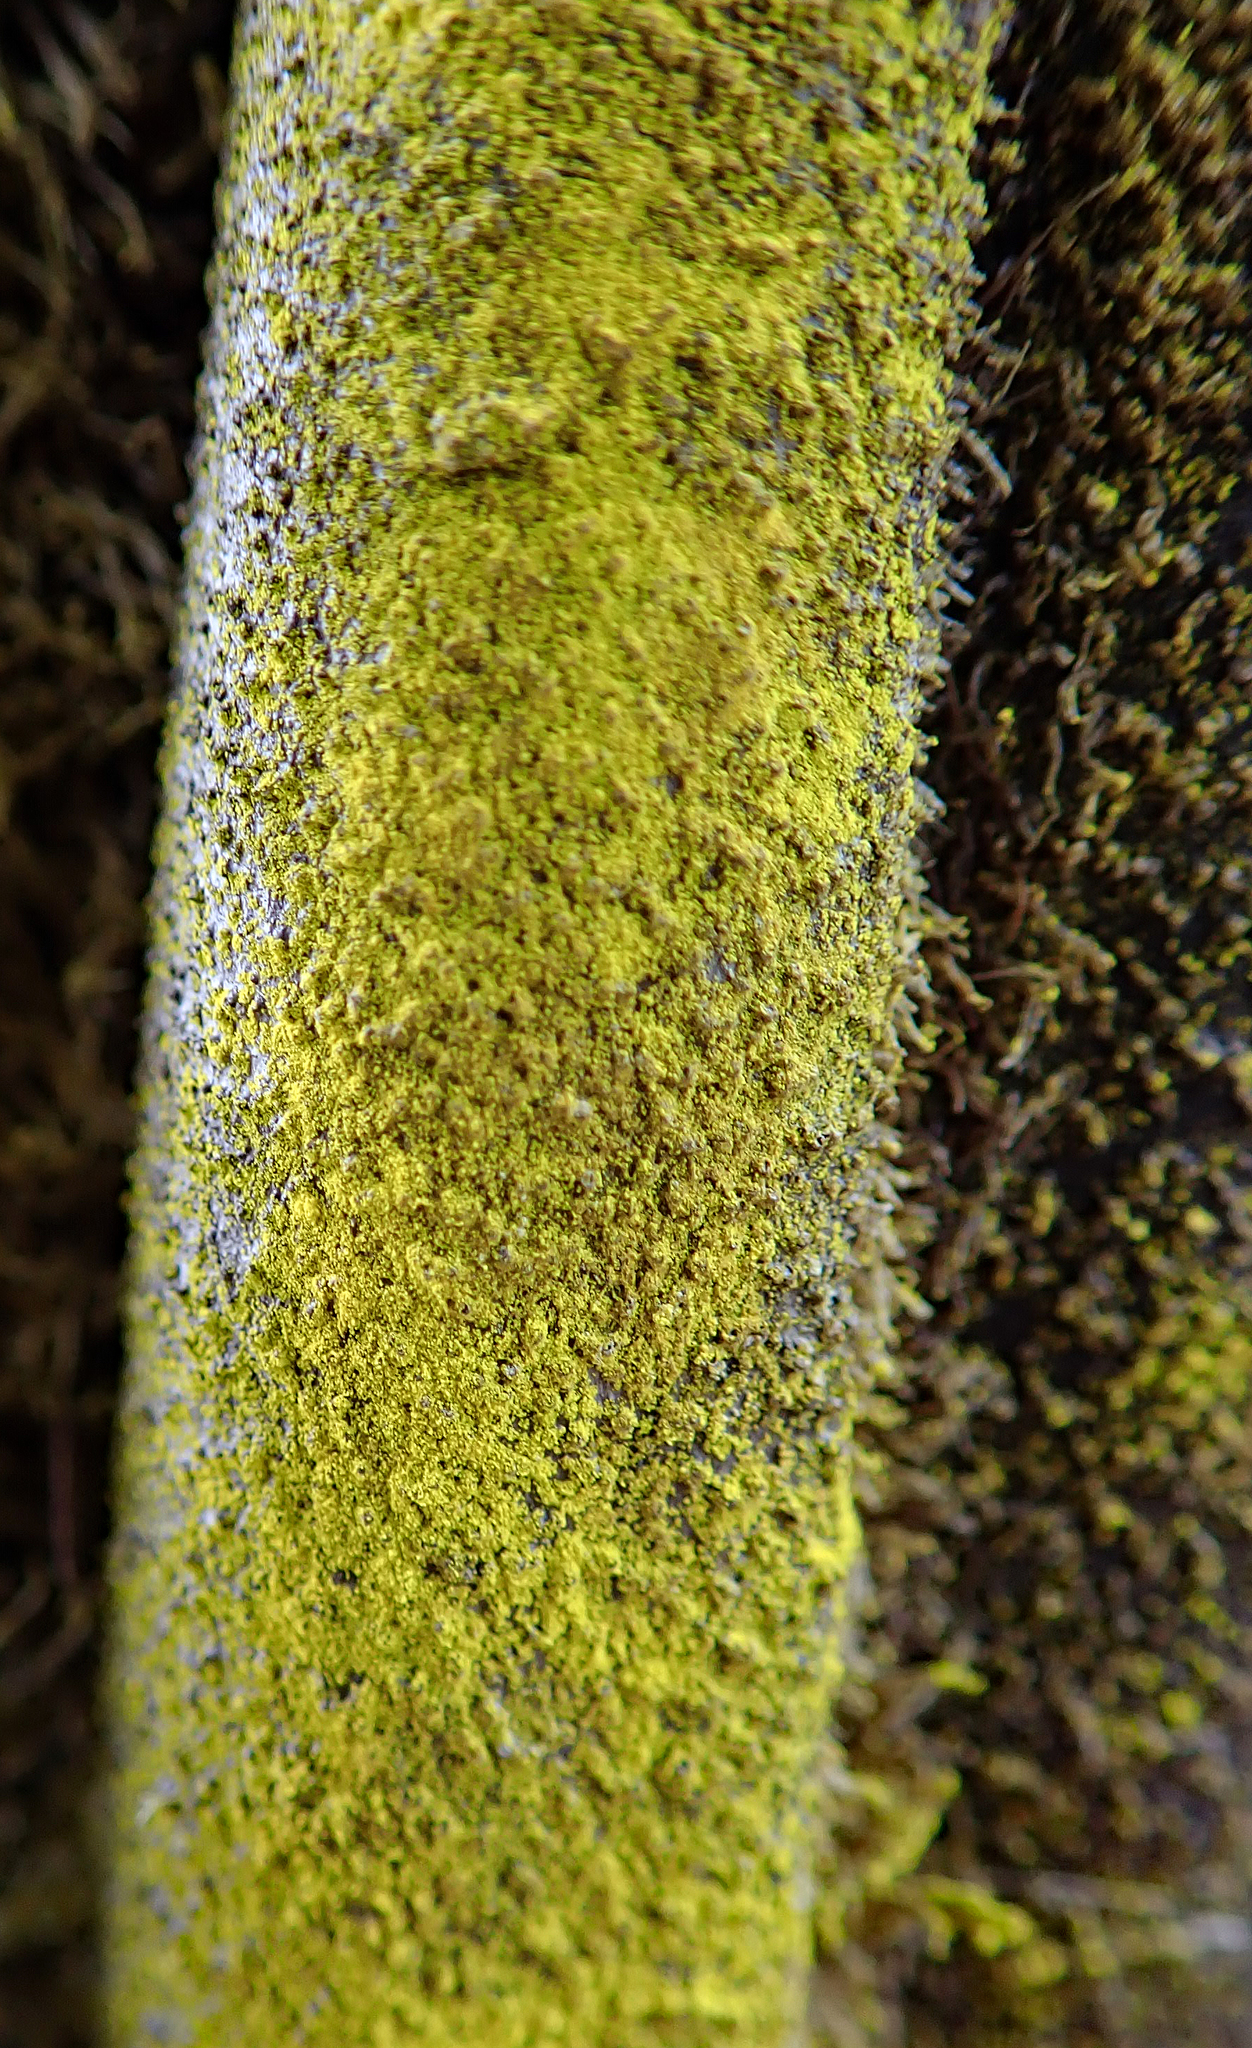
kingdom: Fungi
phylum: Ascomycota
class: Arthoniomycetes
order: Arthoniales
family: Chrysotrichaceae
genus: Chrysothrix
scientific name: Chrysothrix xanthina
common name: Common gold-dust
